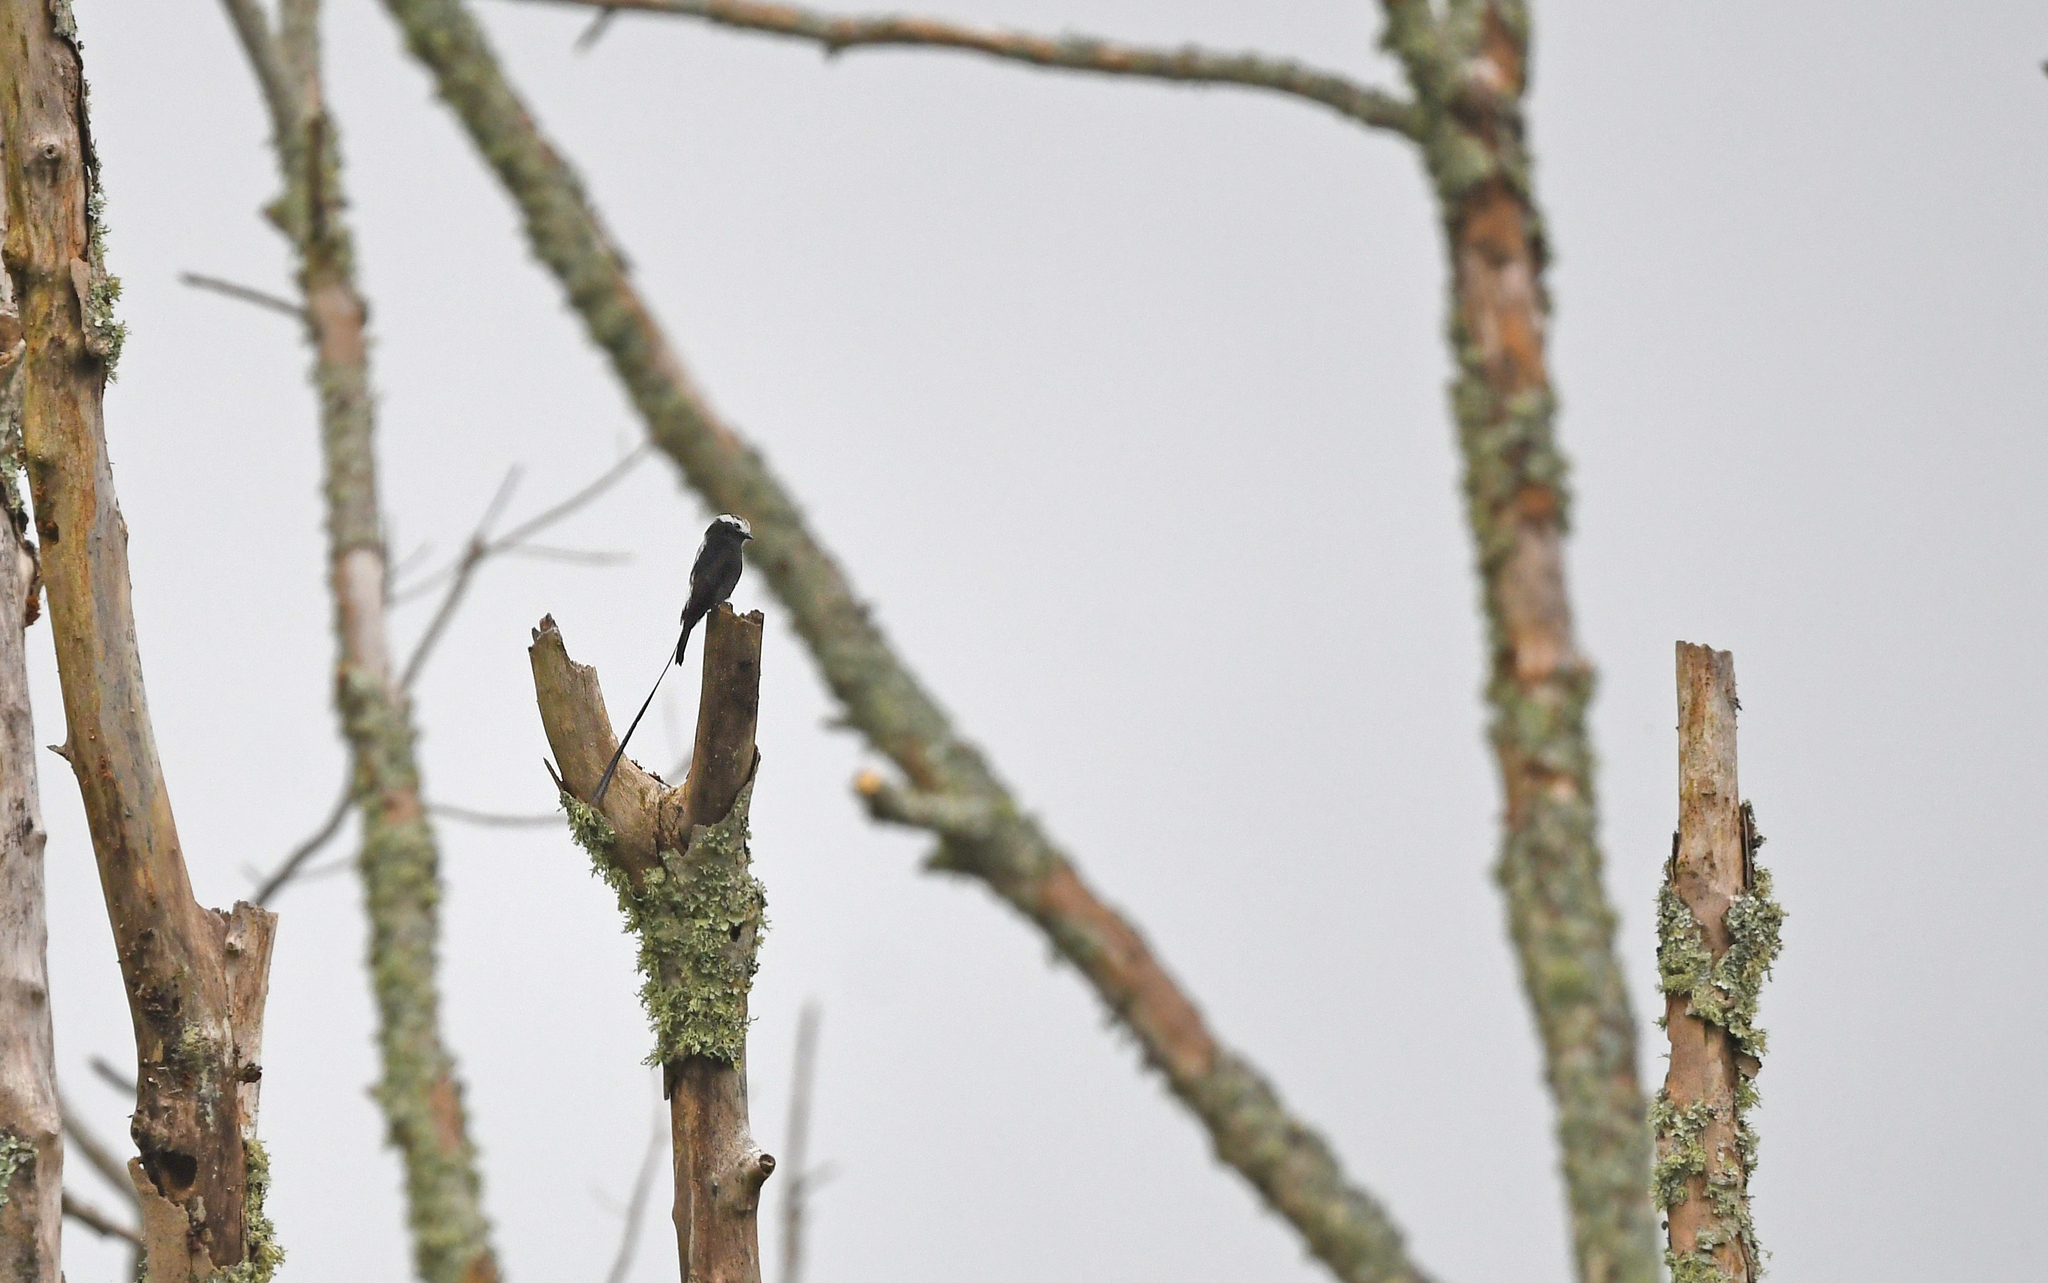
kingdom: Animalia
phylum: Chordata
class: Aves
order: Passeriformes
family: Tyrannidae
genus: Colonia
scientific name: Colonia colonus
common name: Long-tailed tyrant
